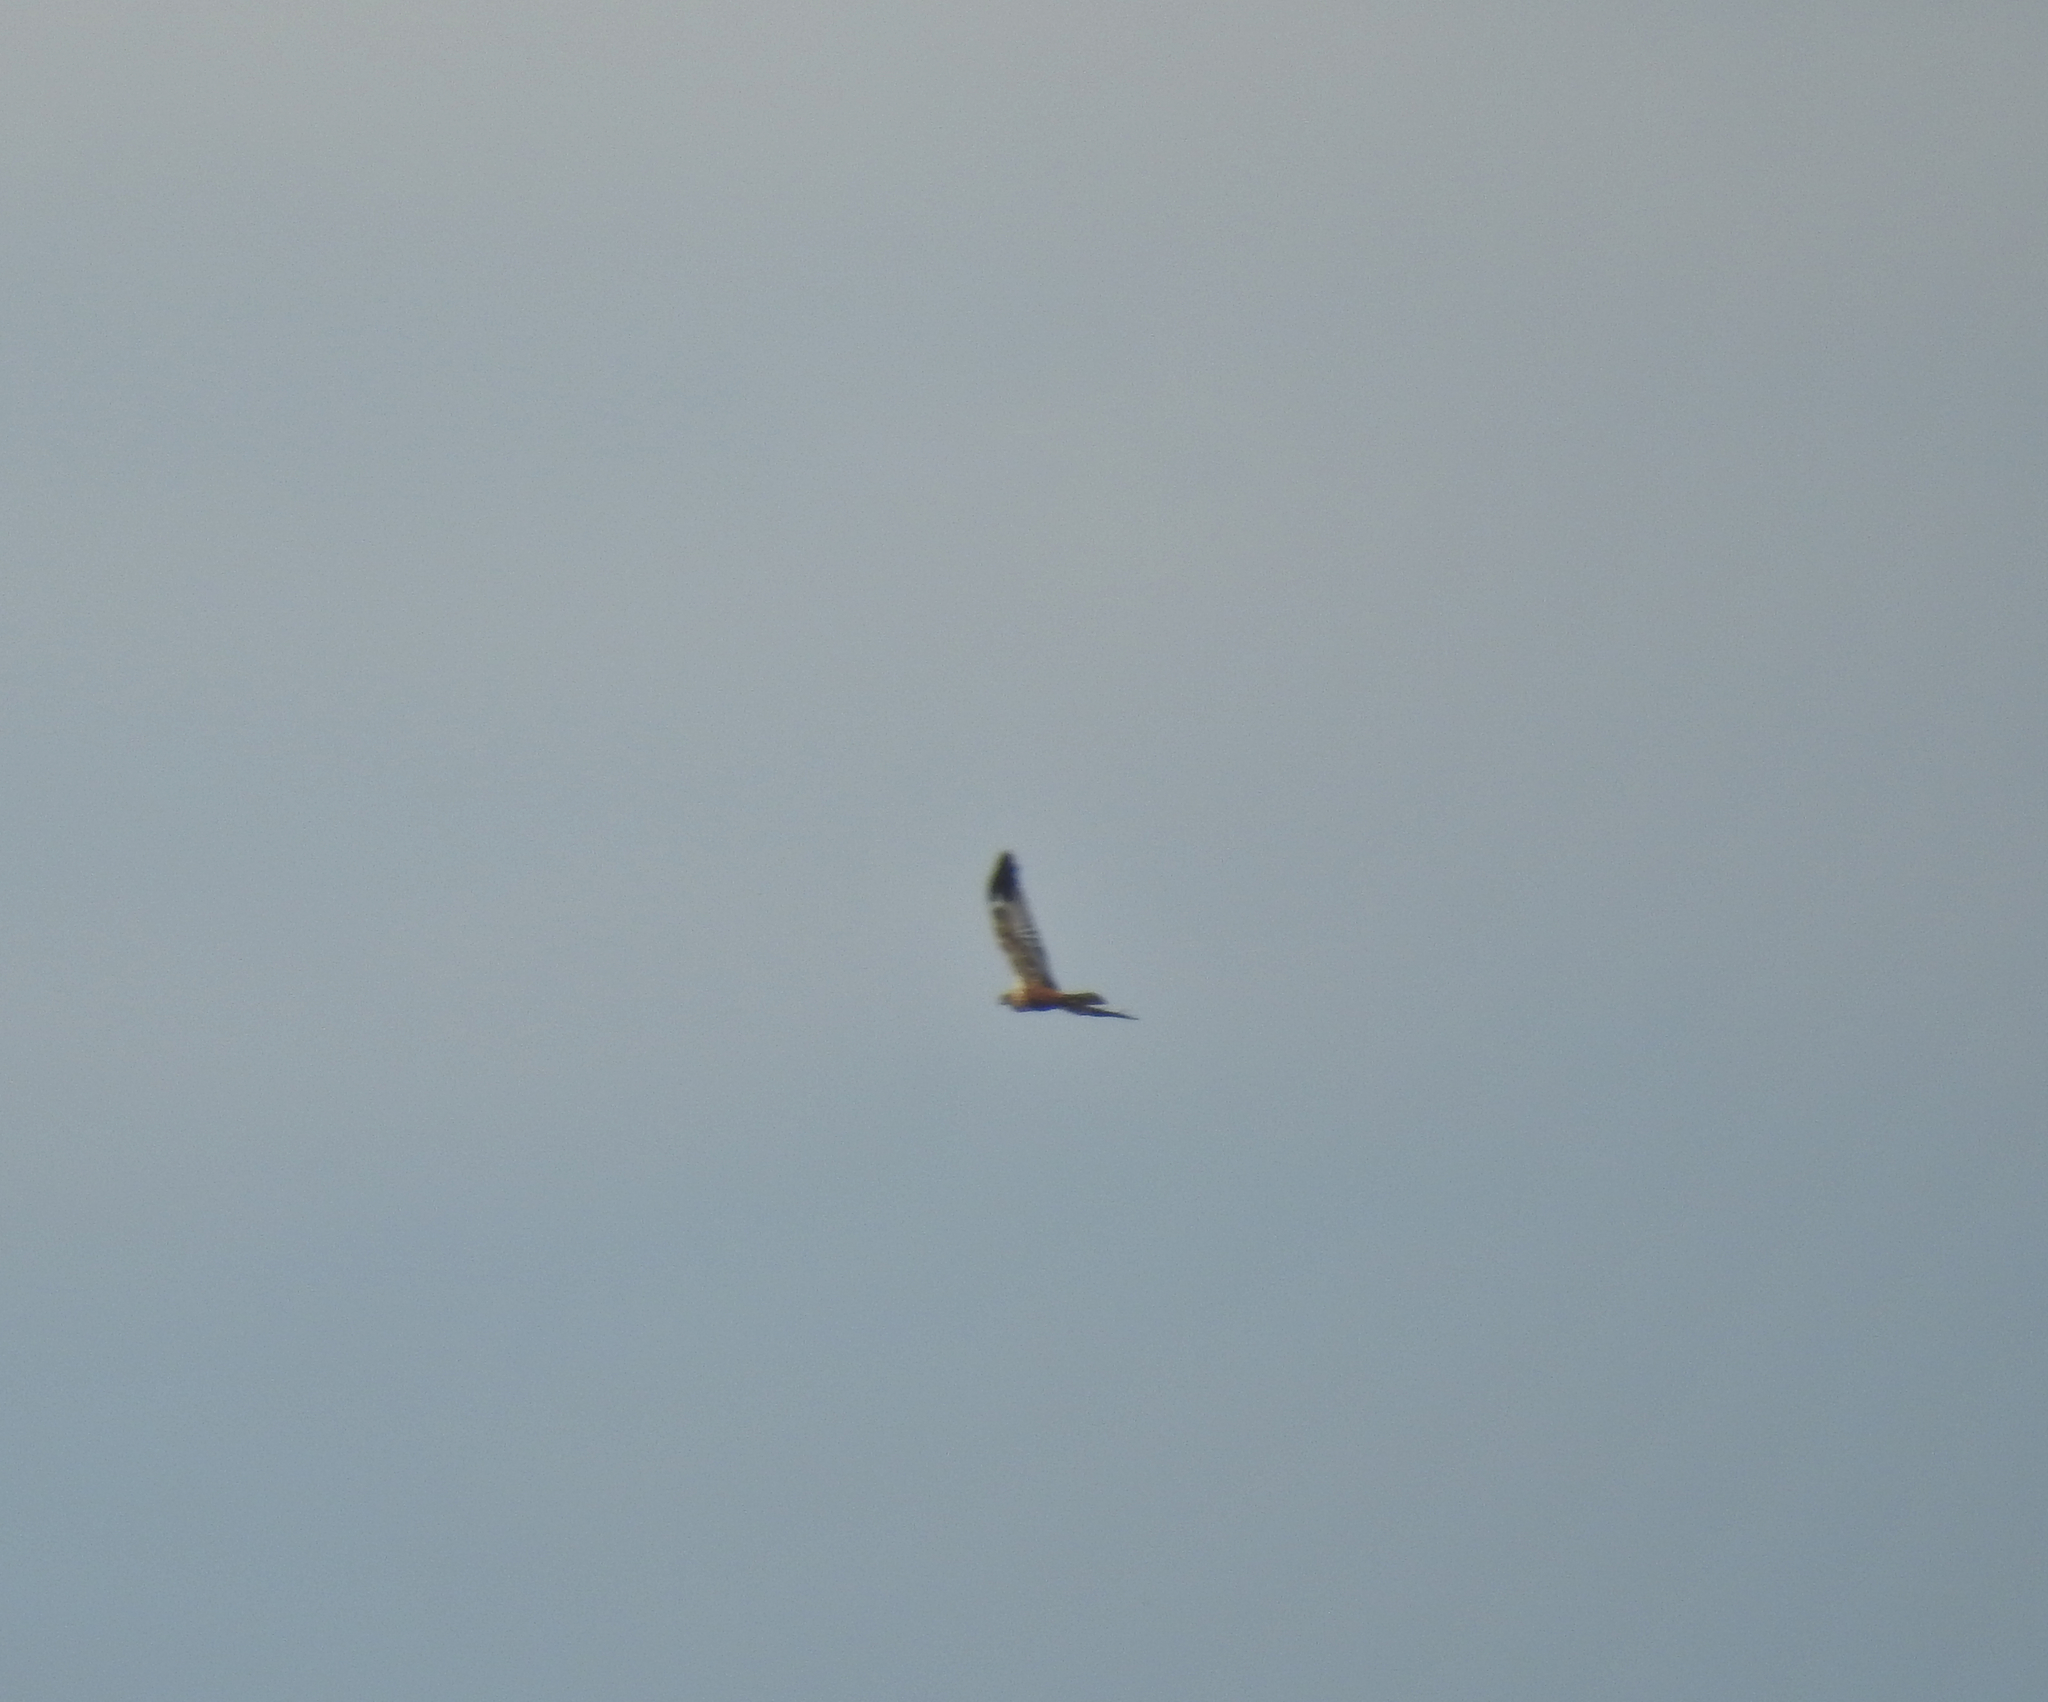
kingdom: Animalia
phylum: Chordata
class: Aves
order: Accipitriformes
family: Accipitridae
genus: Circus
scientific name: Circus aeruginosus
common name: Western marsh harrier
